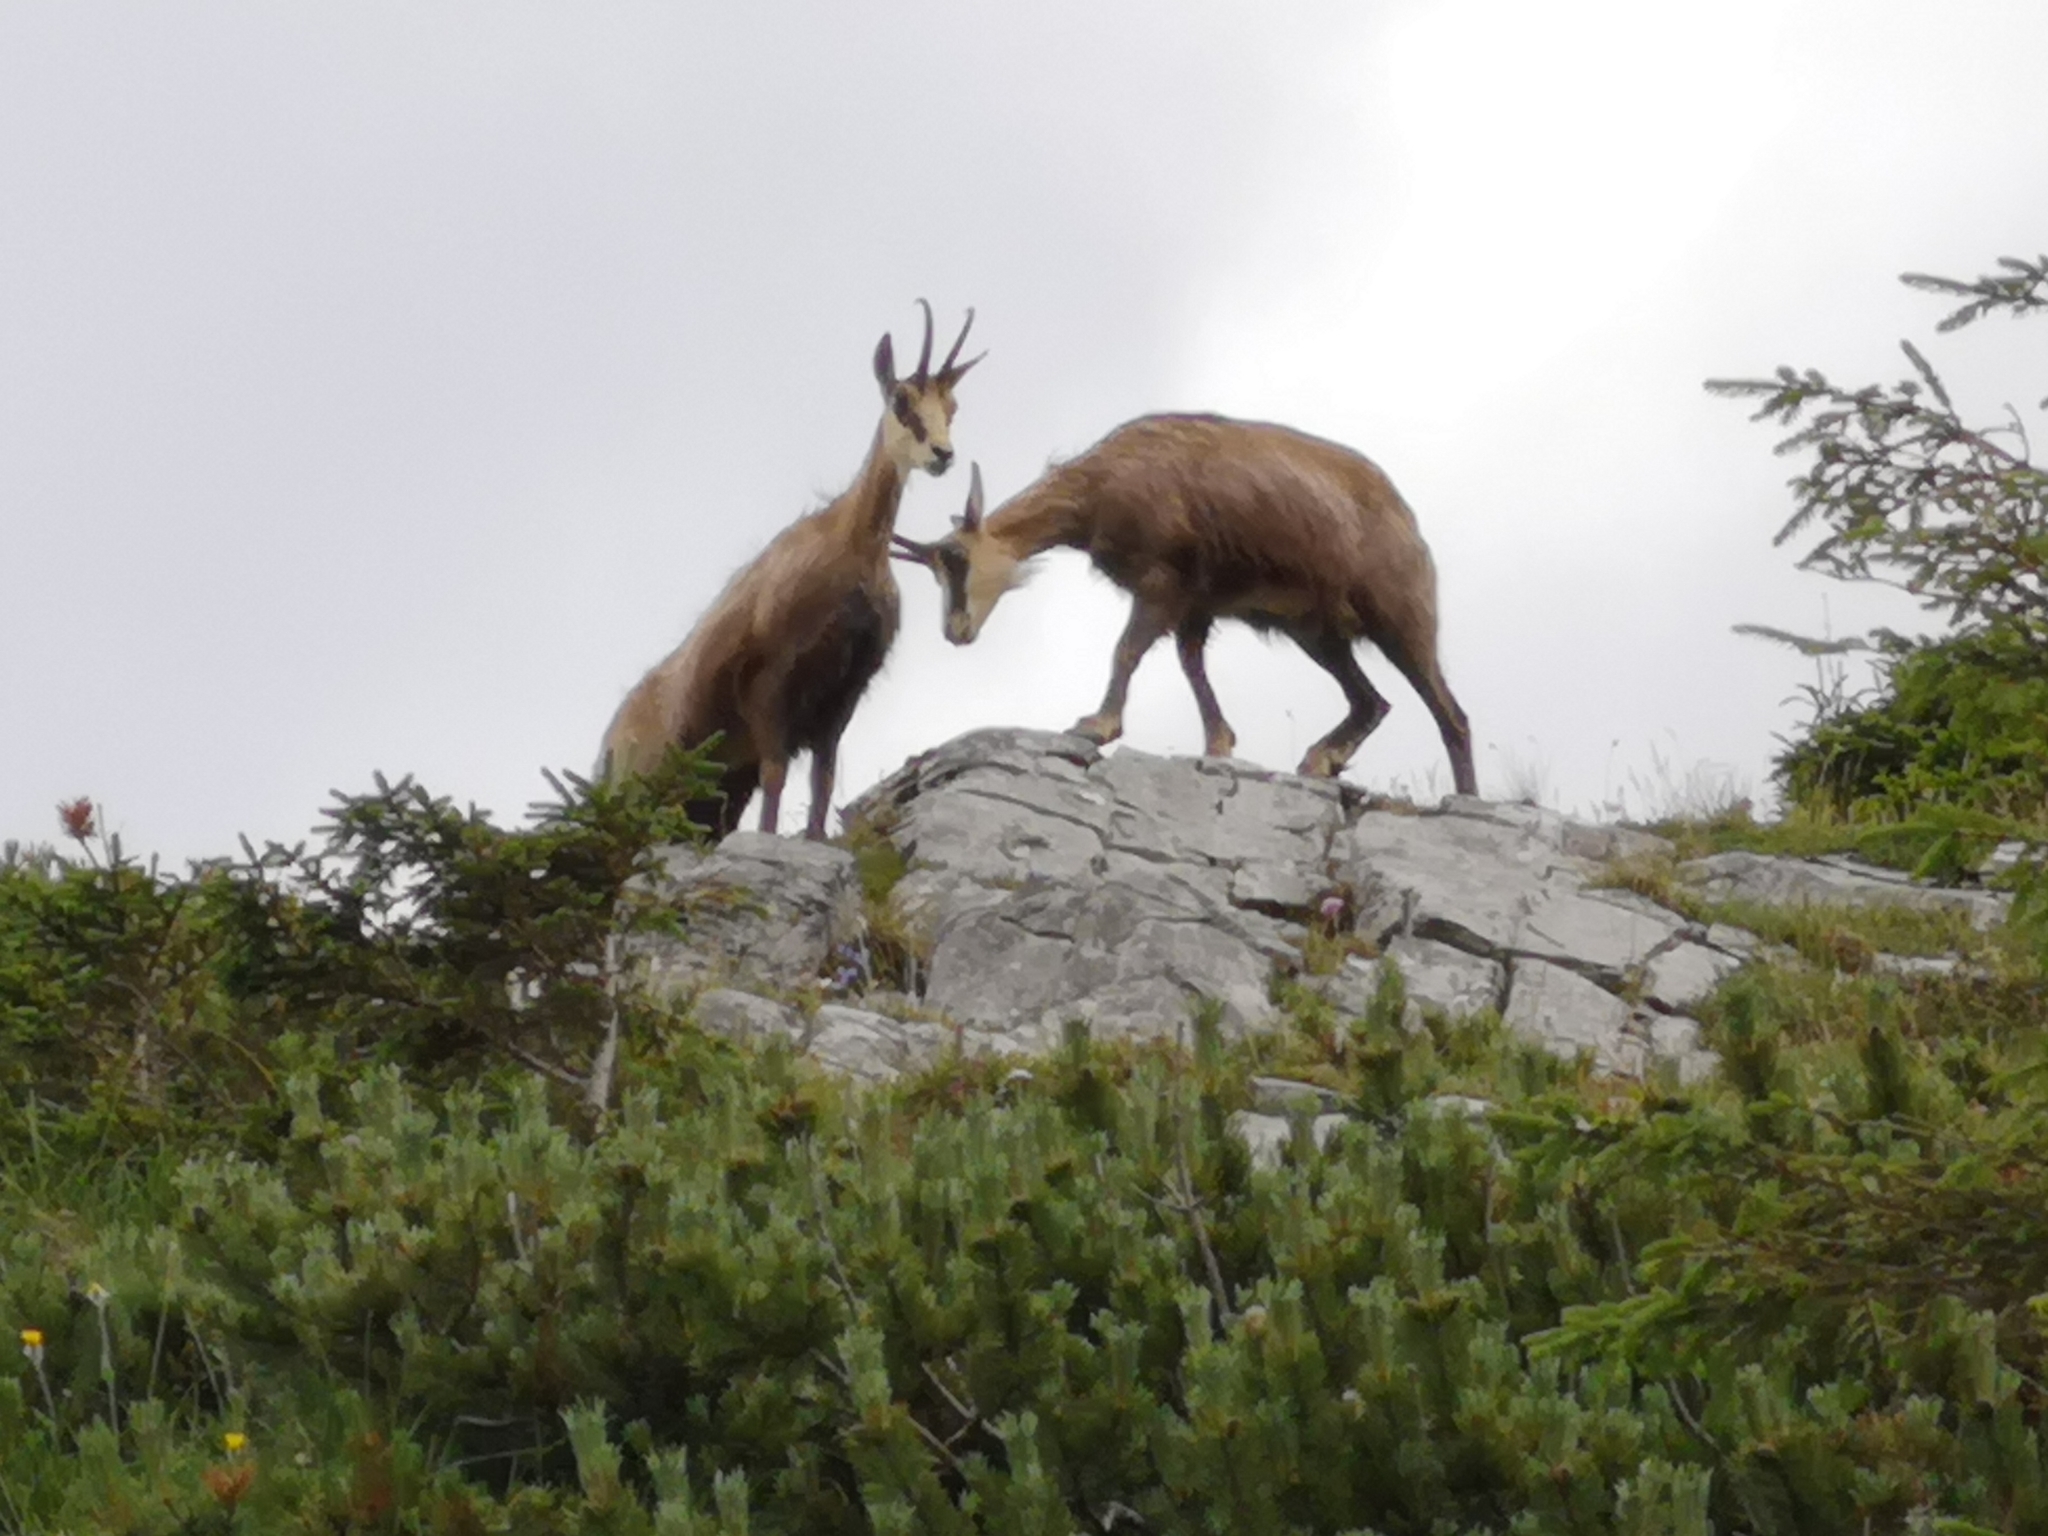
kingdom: Animalia
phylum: Chordata
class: Mammalia
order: Artiodactyla
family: Bovidae
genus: Rupicapra
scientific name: Rupicapra rupicapra
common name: Chamois
